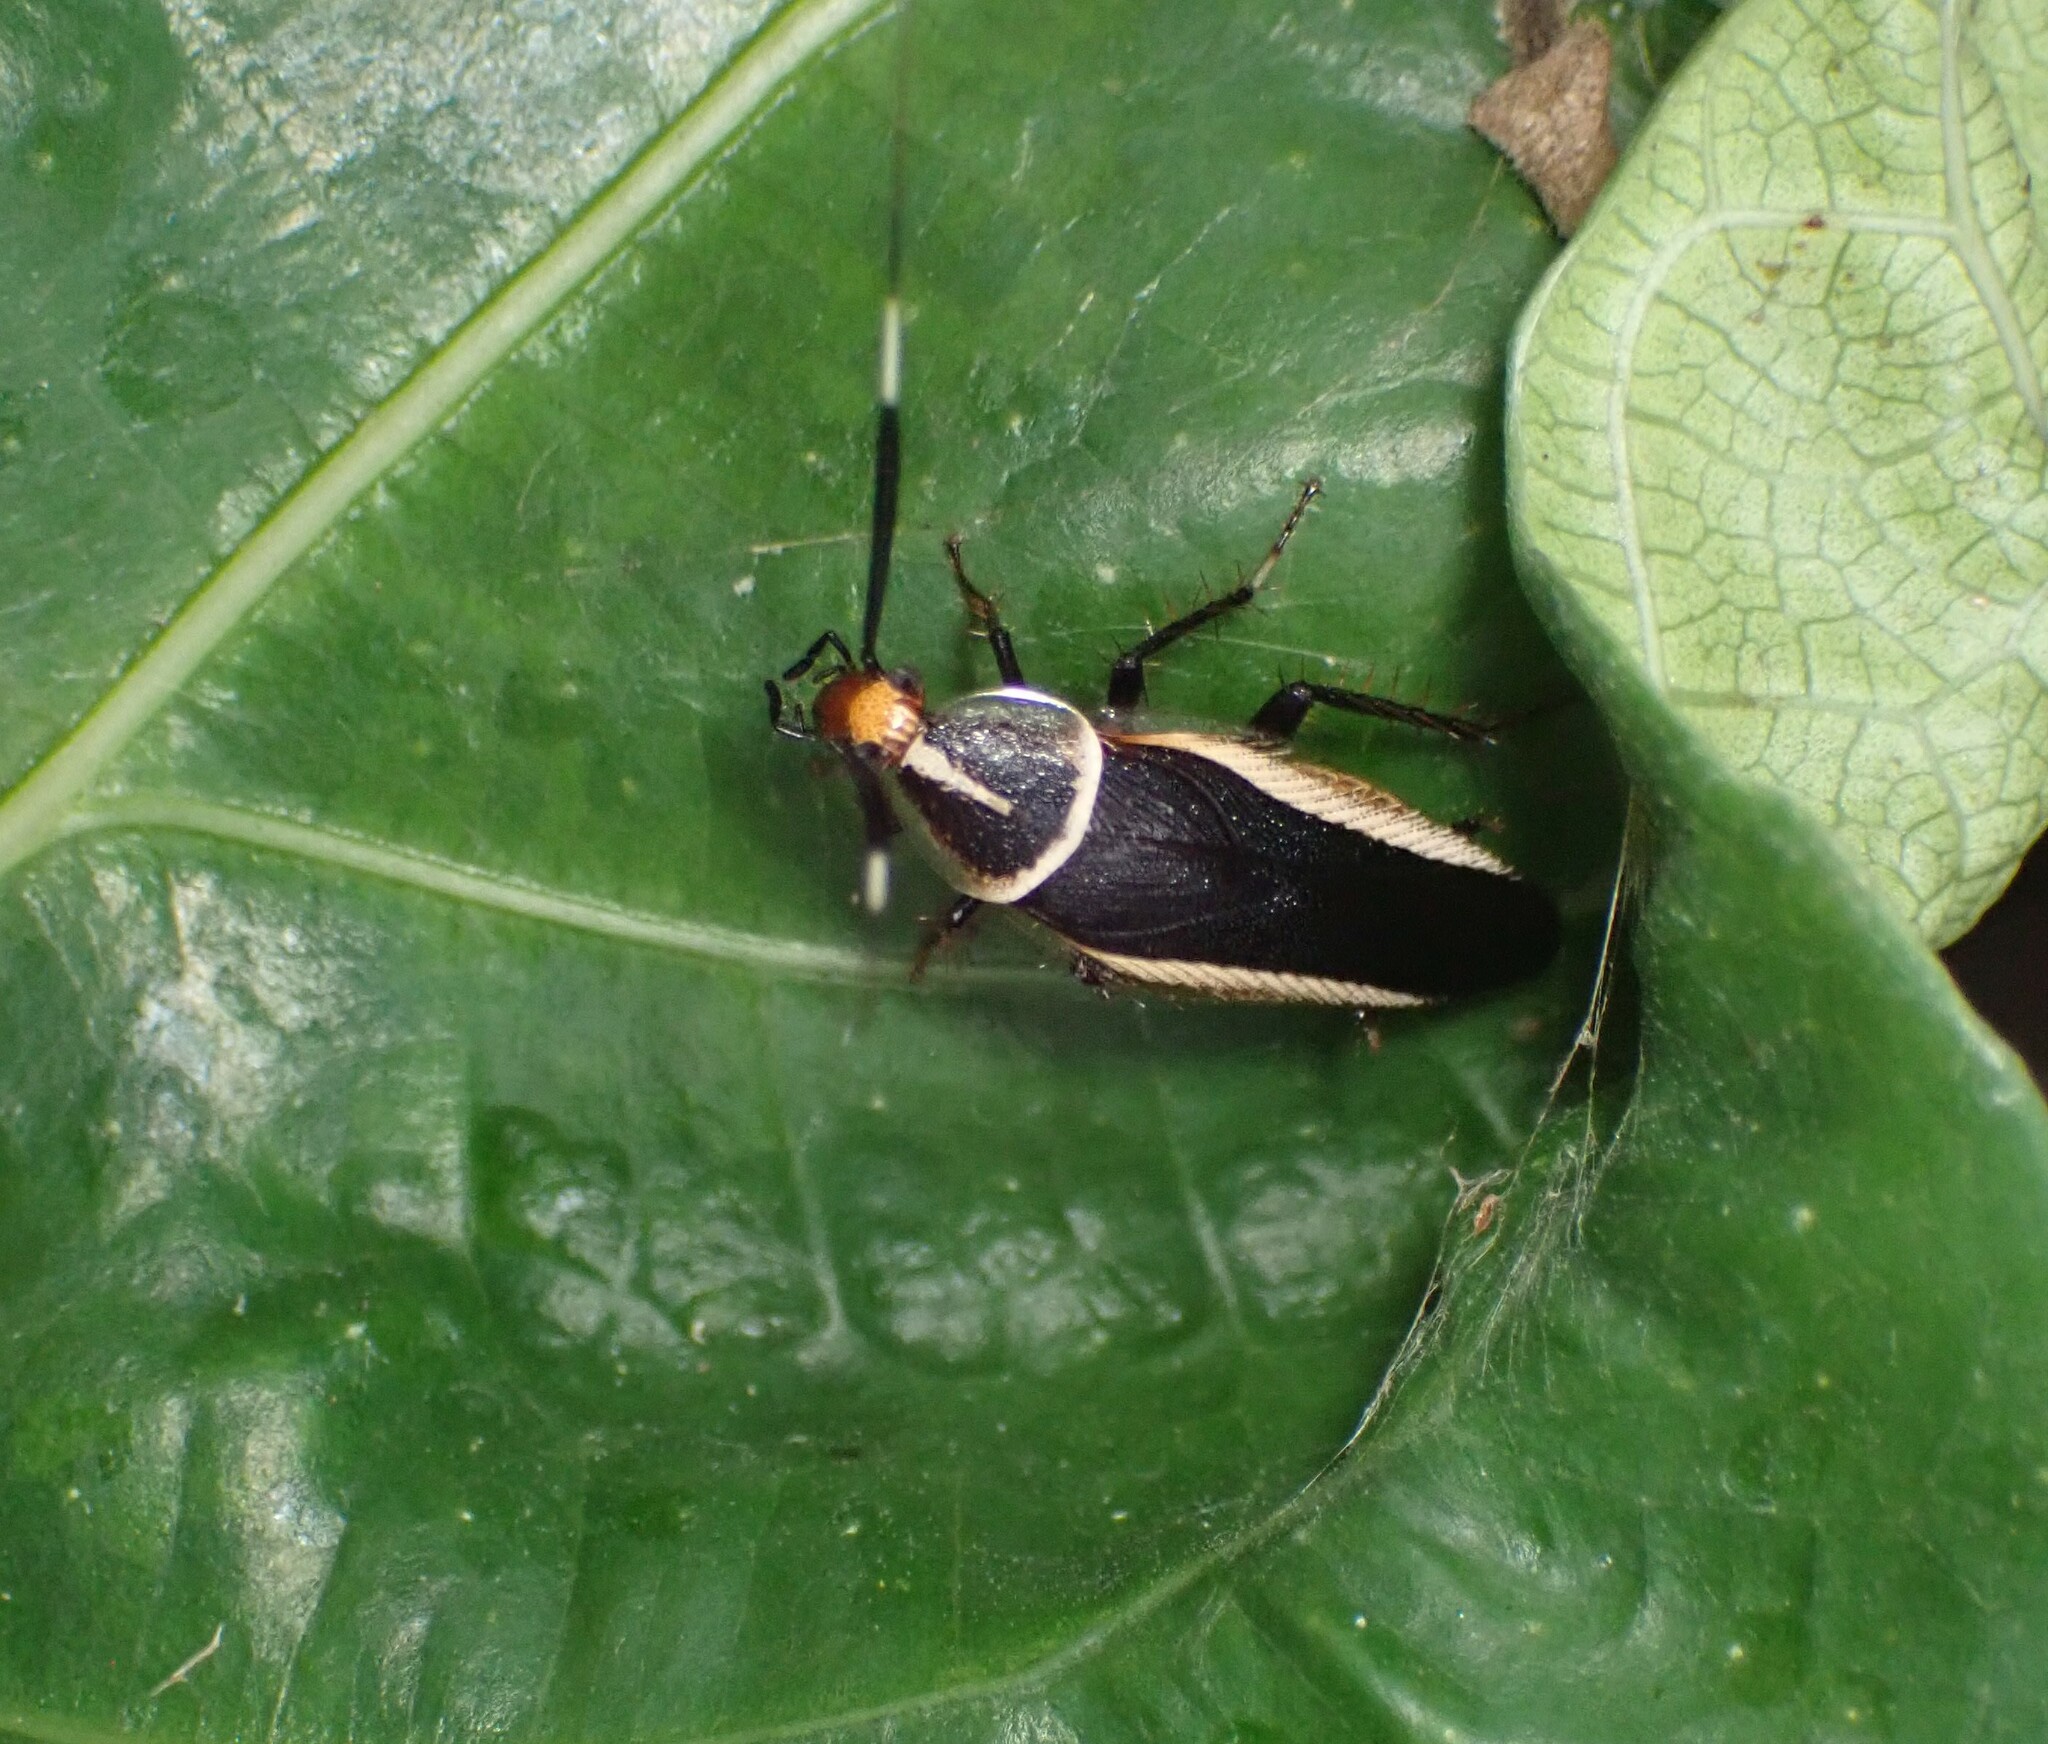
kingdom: Animalia
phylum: Arthropoda
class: Insecta
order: Blattodea
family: Ectobiidae
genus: Hemithyrsocera
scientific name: Hemithyrsocera histrio
